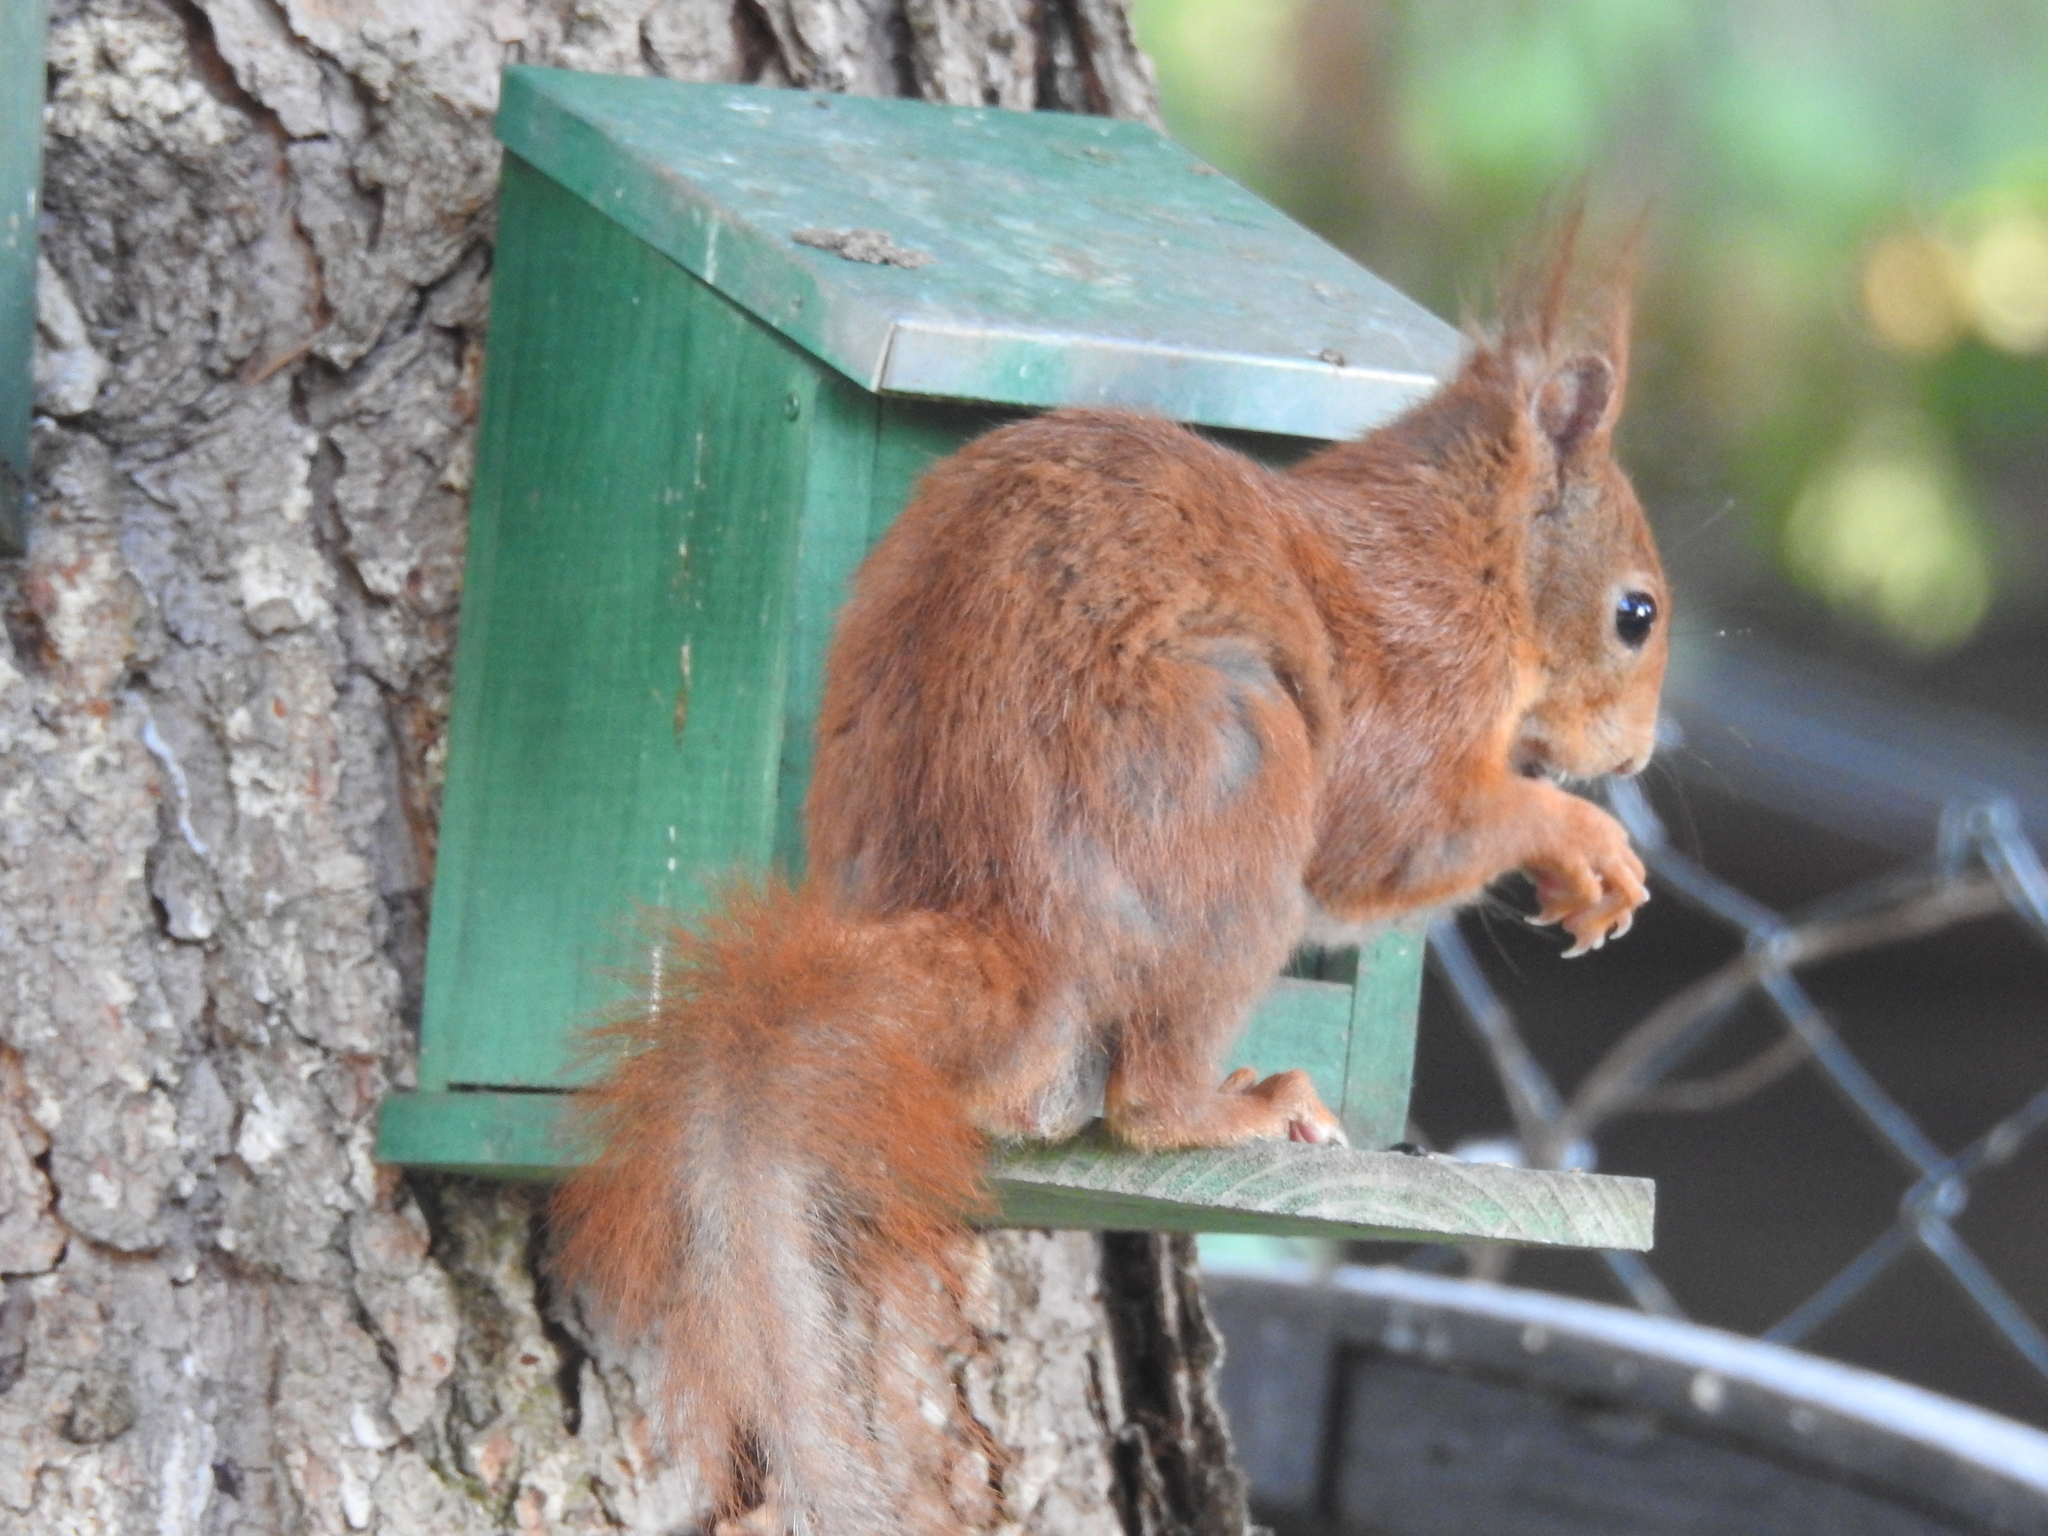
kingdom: Animalia
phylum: Chordata
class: Mammalia
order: Rodentia
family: Sciuridae
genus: Sciurus
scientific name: Sciurus vulgaris
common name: Eurasian red squirrel
